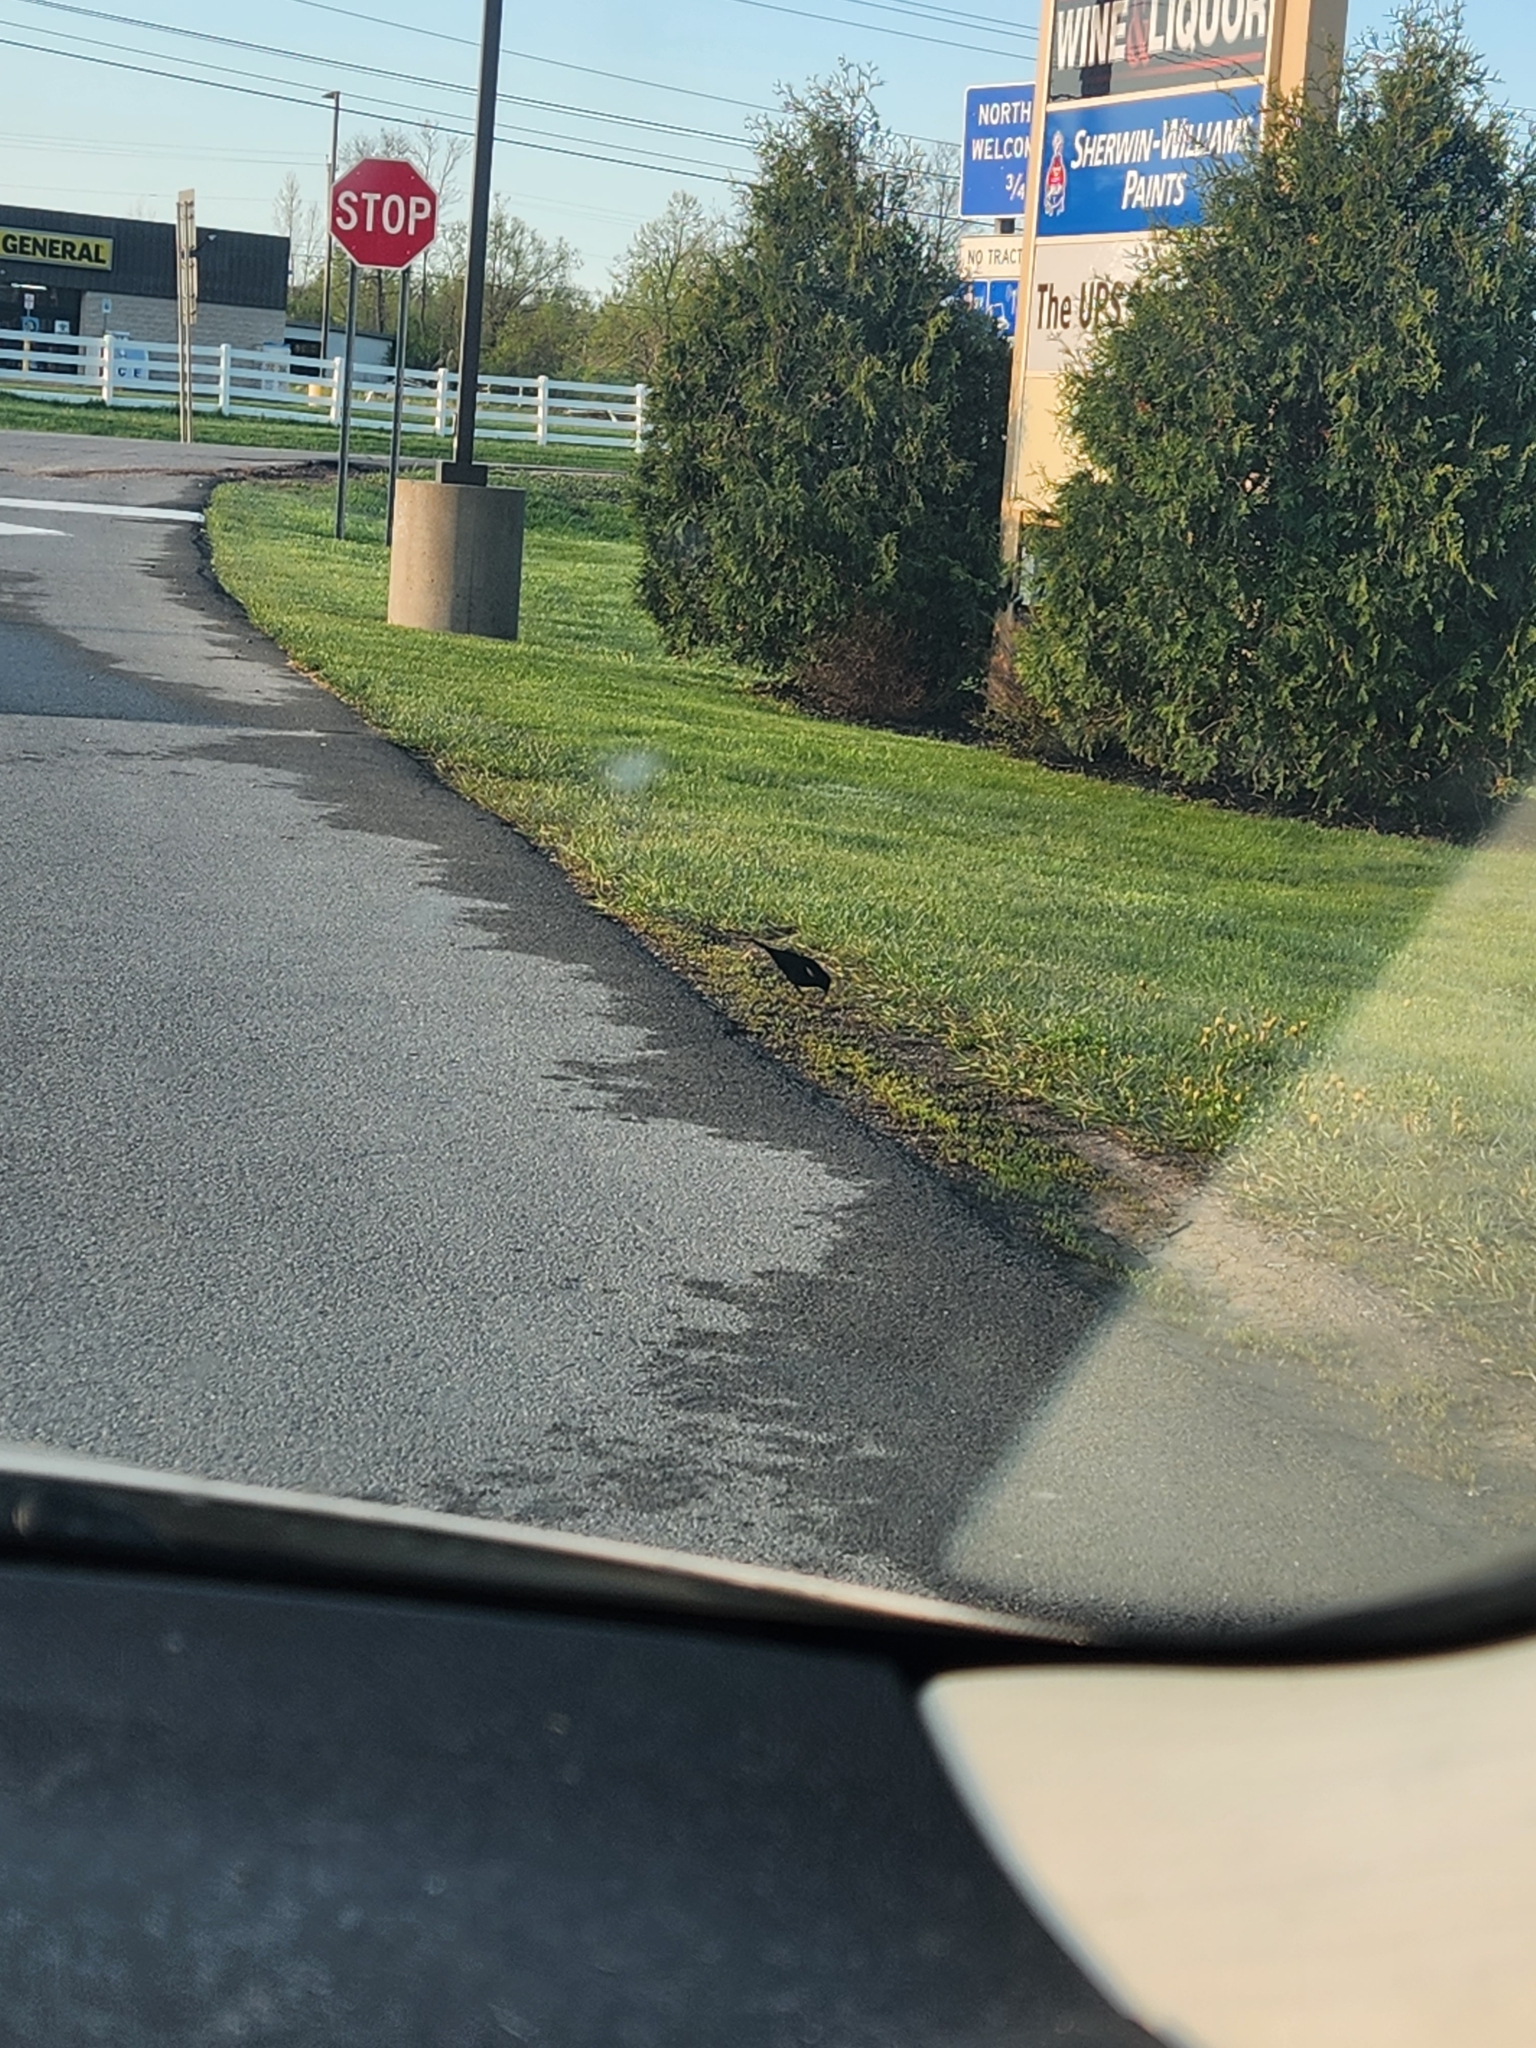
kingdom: Animalia
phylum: Chordata
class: Aves
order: Passeriformes
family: Icteridae
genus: Agelaius
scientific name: Agelaius phoeniceus
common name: Red-winged blackbird
